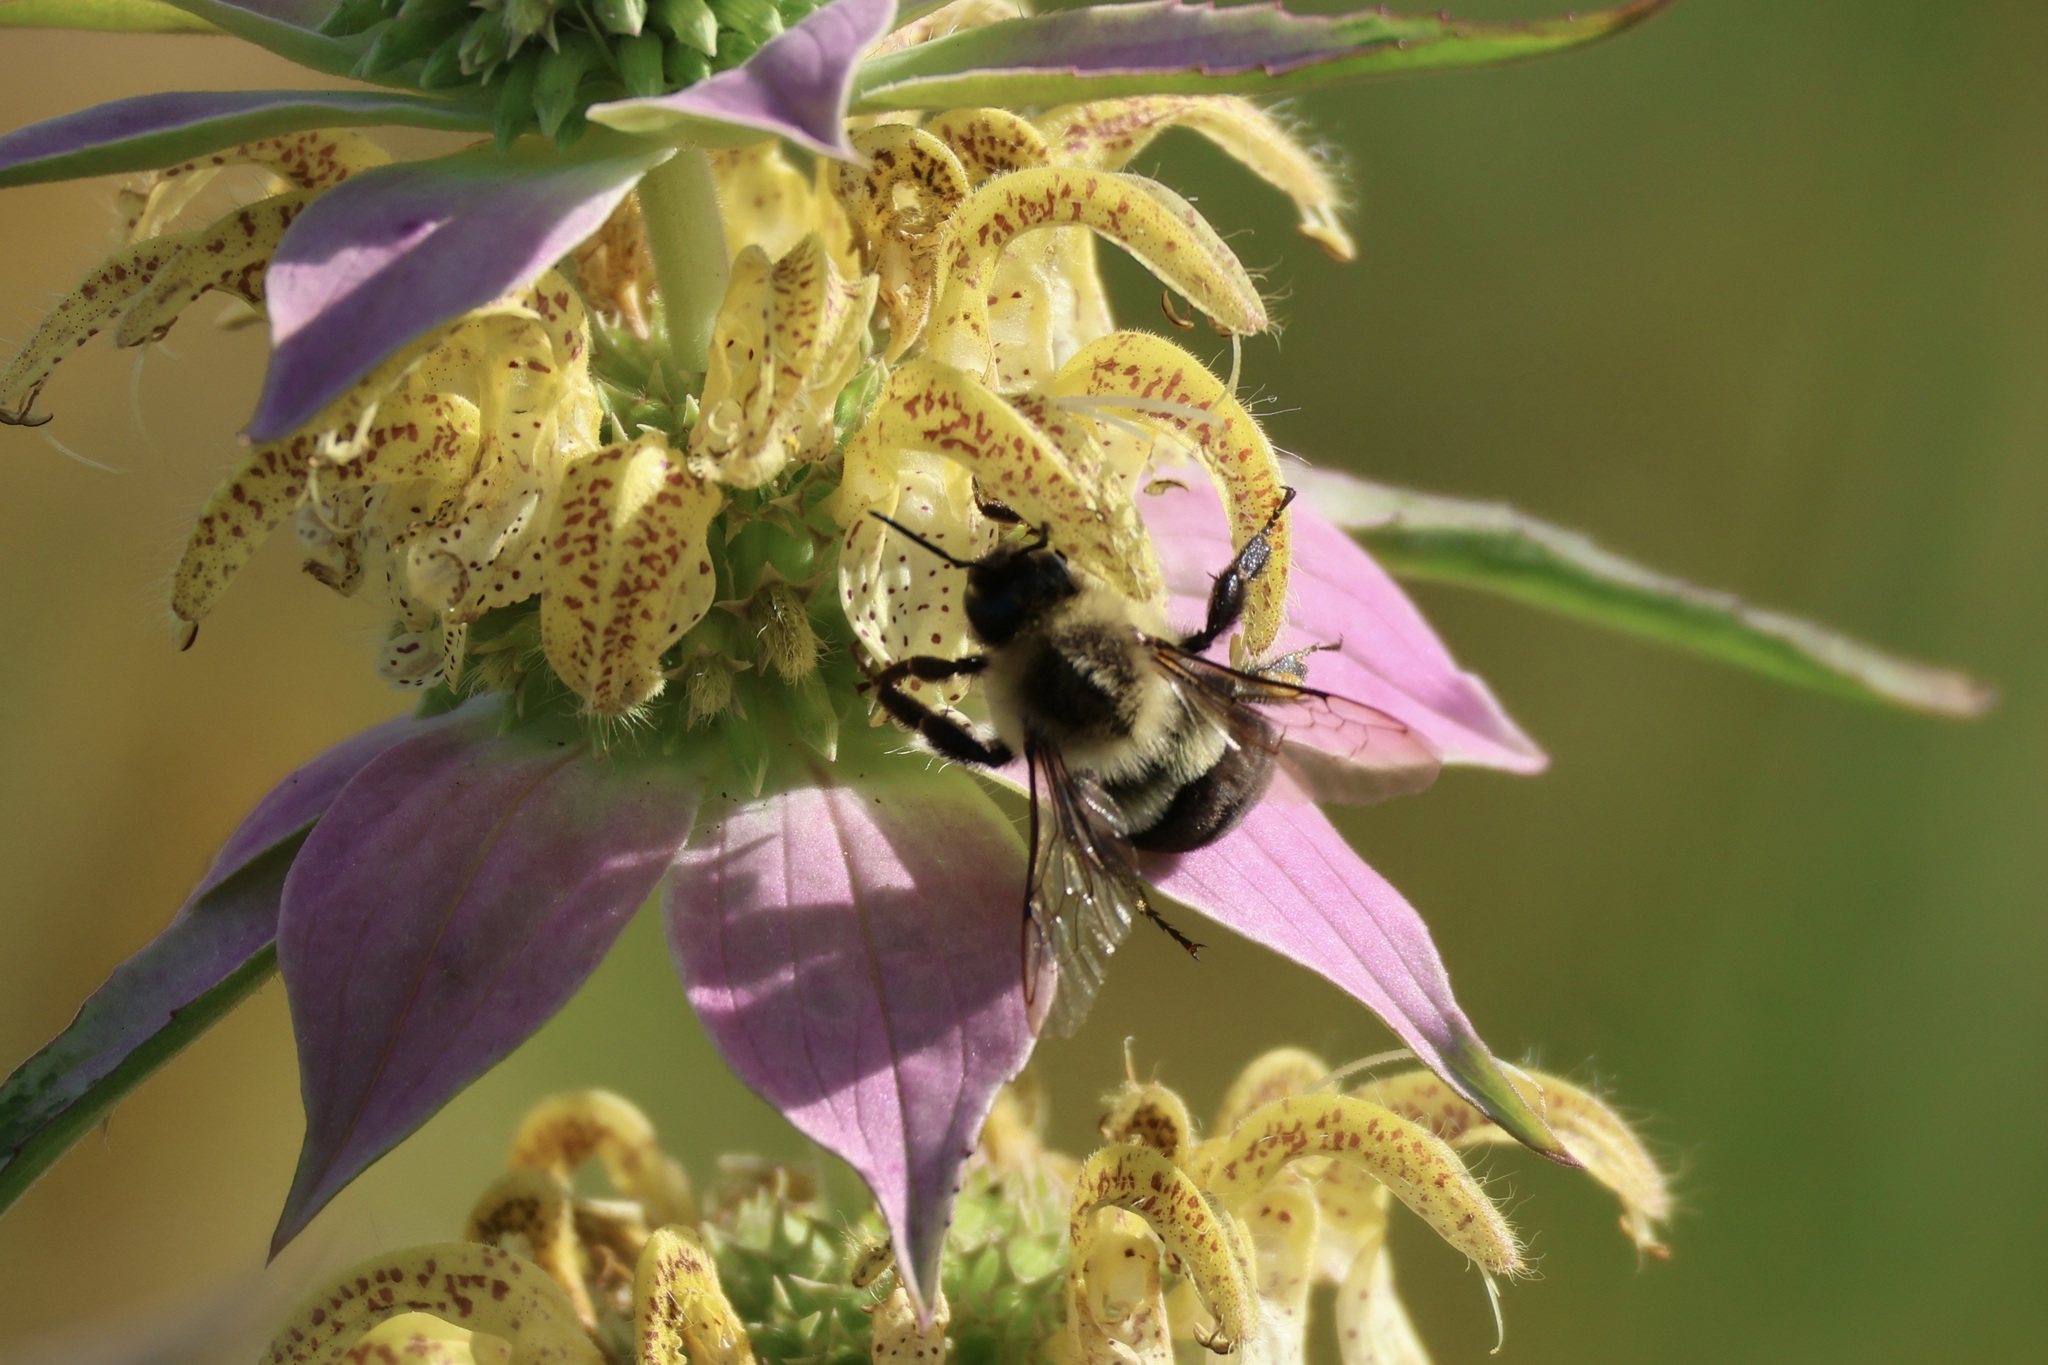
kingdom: Animalia
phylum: Arthropoda
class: Insecta
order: Hymenoptera
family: Apidae
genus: Bombus
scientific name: Bombus impatiens
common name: Common eastern bumble bee
